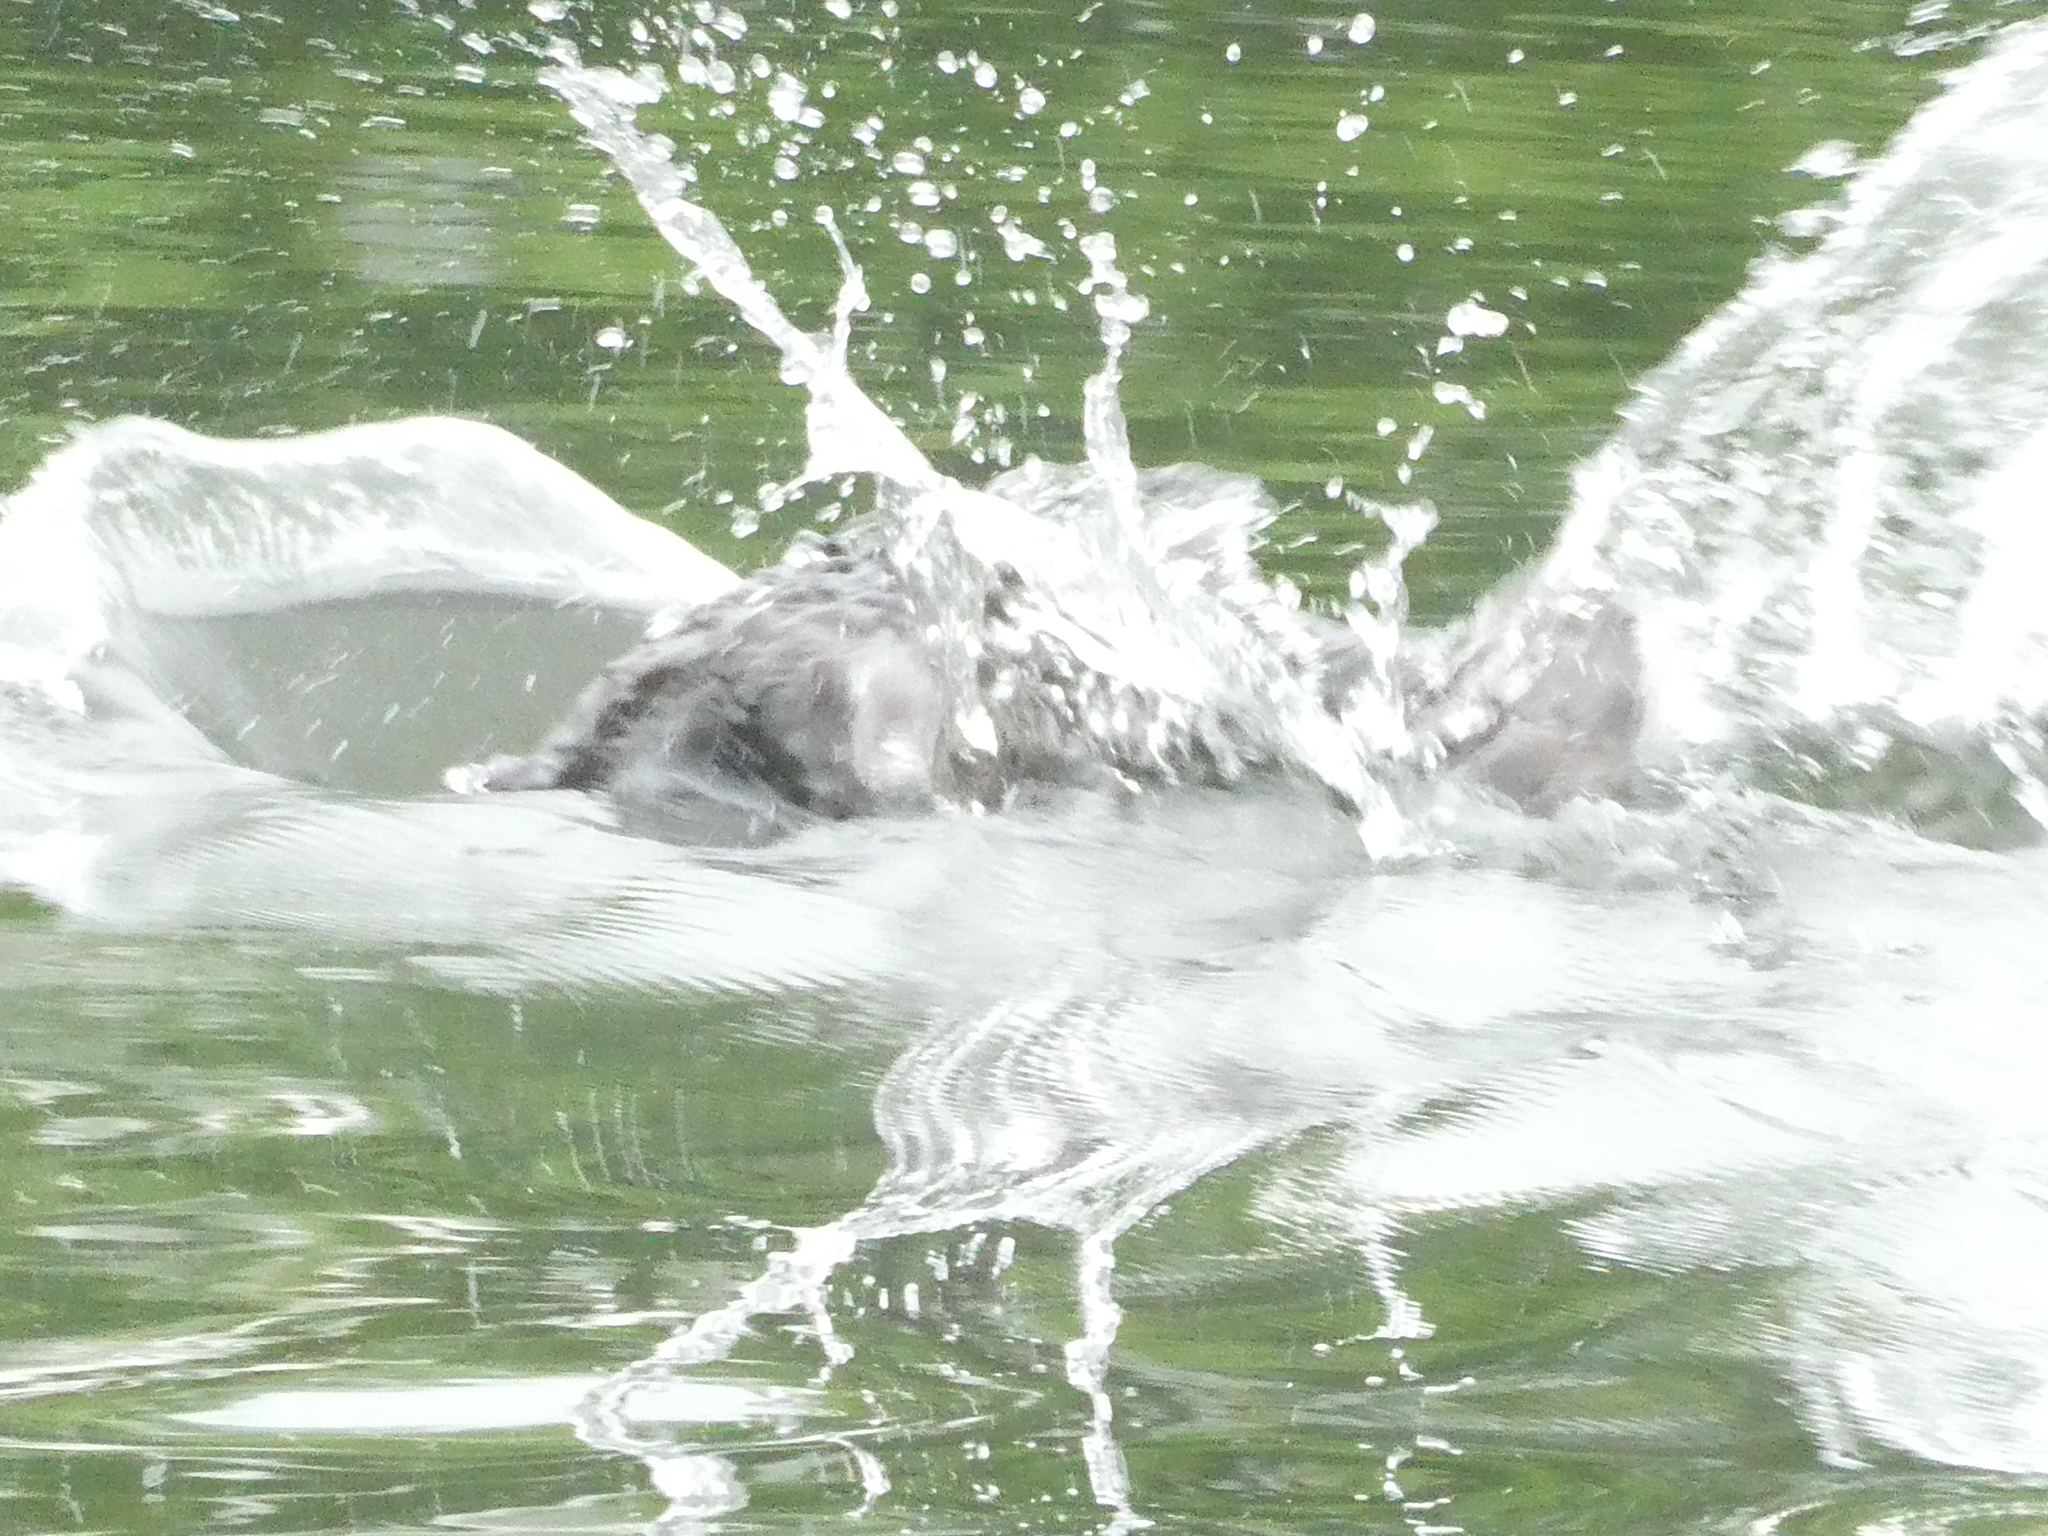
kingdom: Animalia
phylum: Chordata
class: Mammalia
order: Rodentia
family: Castoridae
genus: Castor
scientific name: Castor canadensis
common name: American beaver
